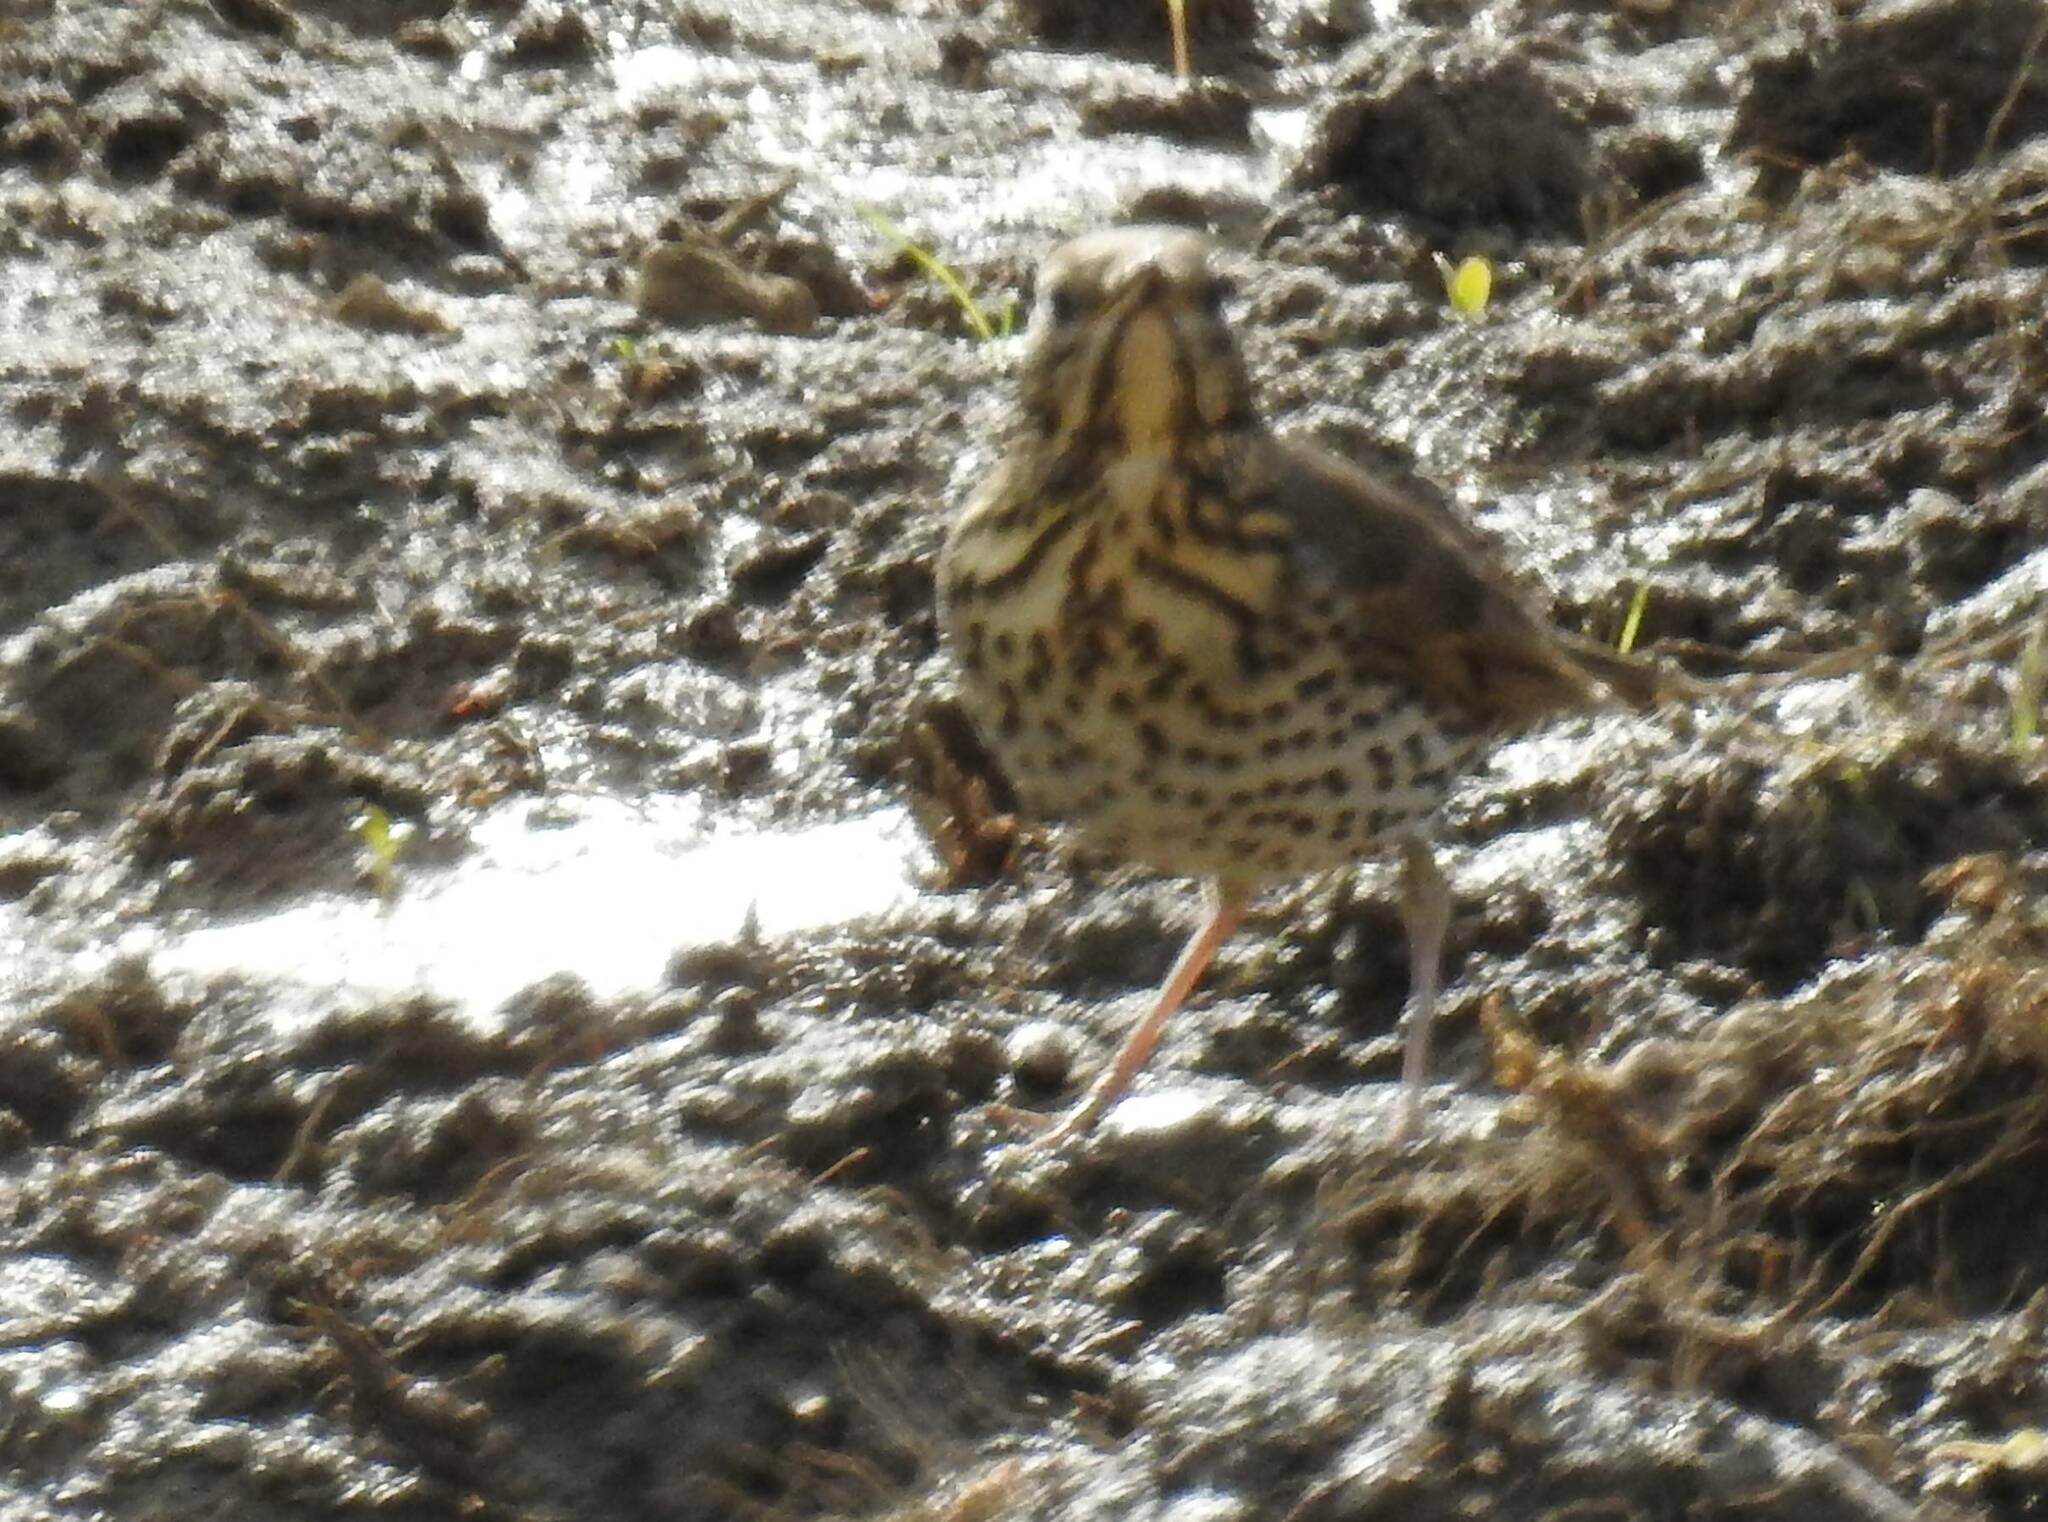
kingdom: Animalia
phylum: Chordata
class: Aves
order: Passeriformes
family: Turdidae
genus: Turdus
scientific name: Turdus philomelos
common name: Song thrush
